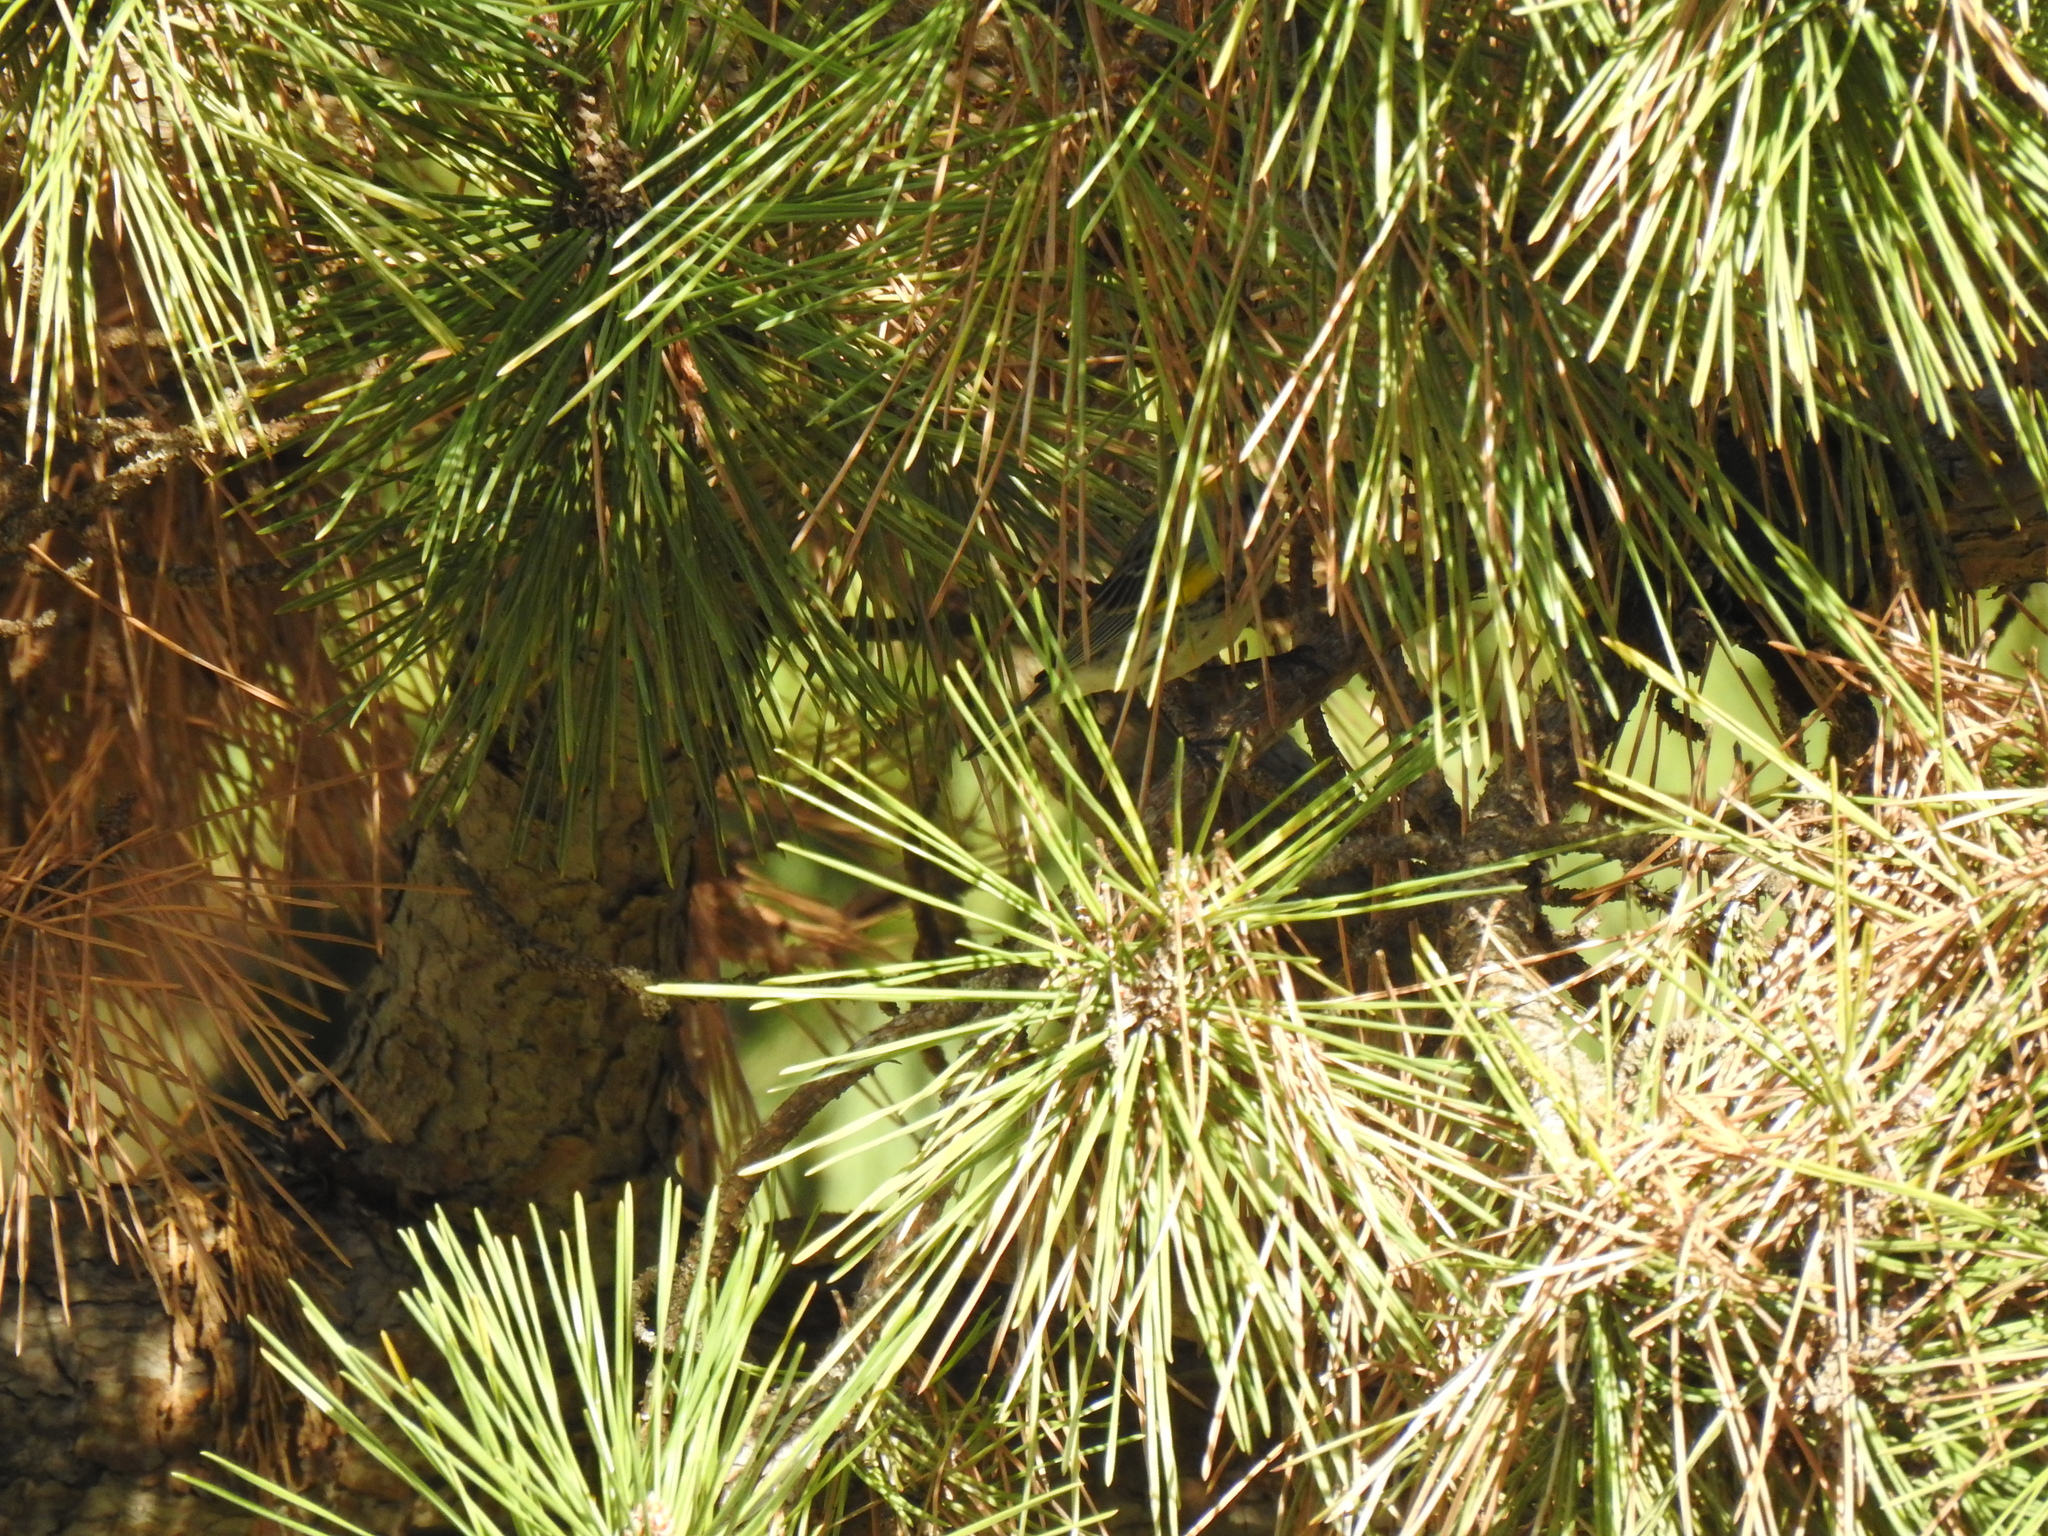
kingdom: Animalia
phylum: Chordata
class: Aves
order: Passeriformes
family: Parulidae
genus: Setophaga
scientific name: Setophaga coronata
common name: Myrtle warbler
